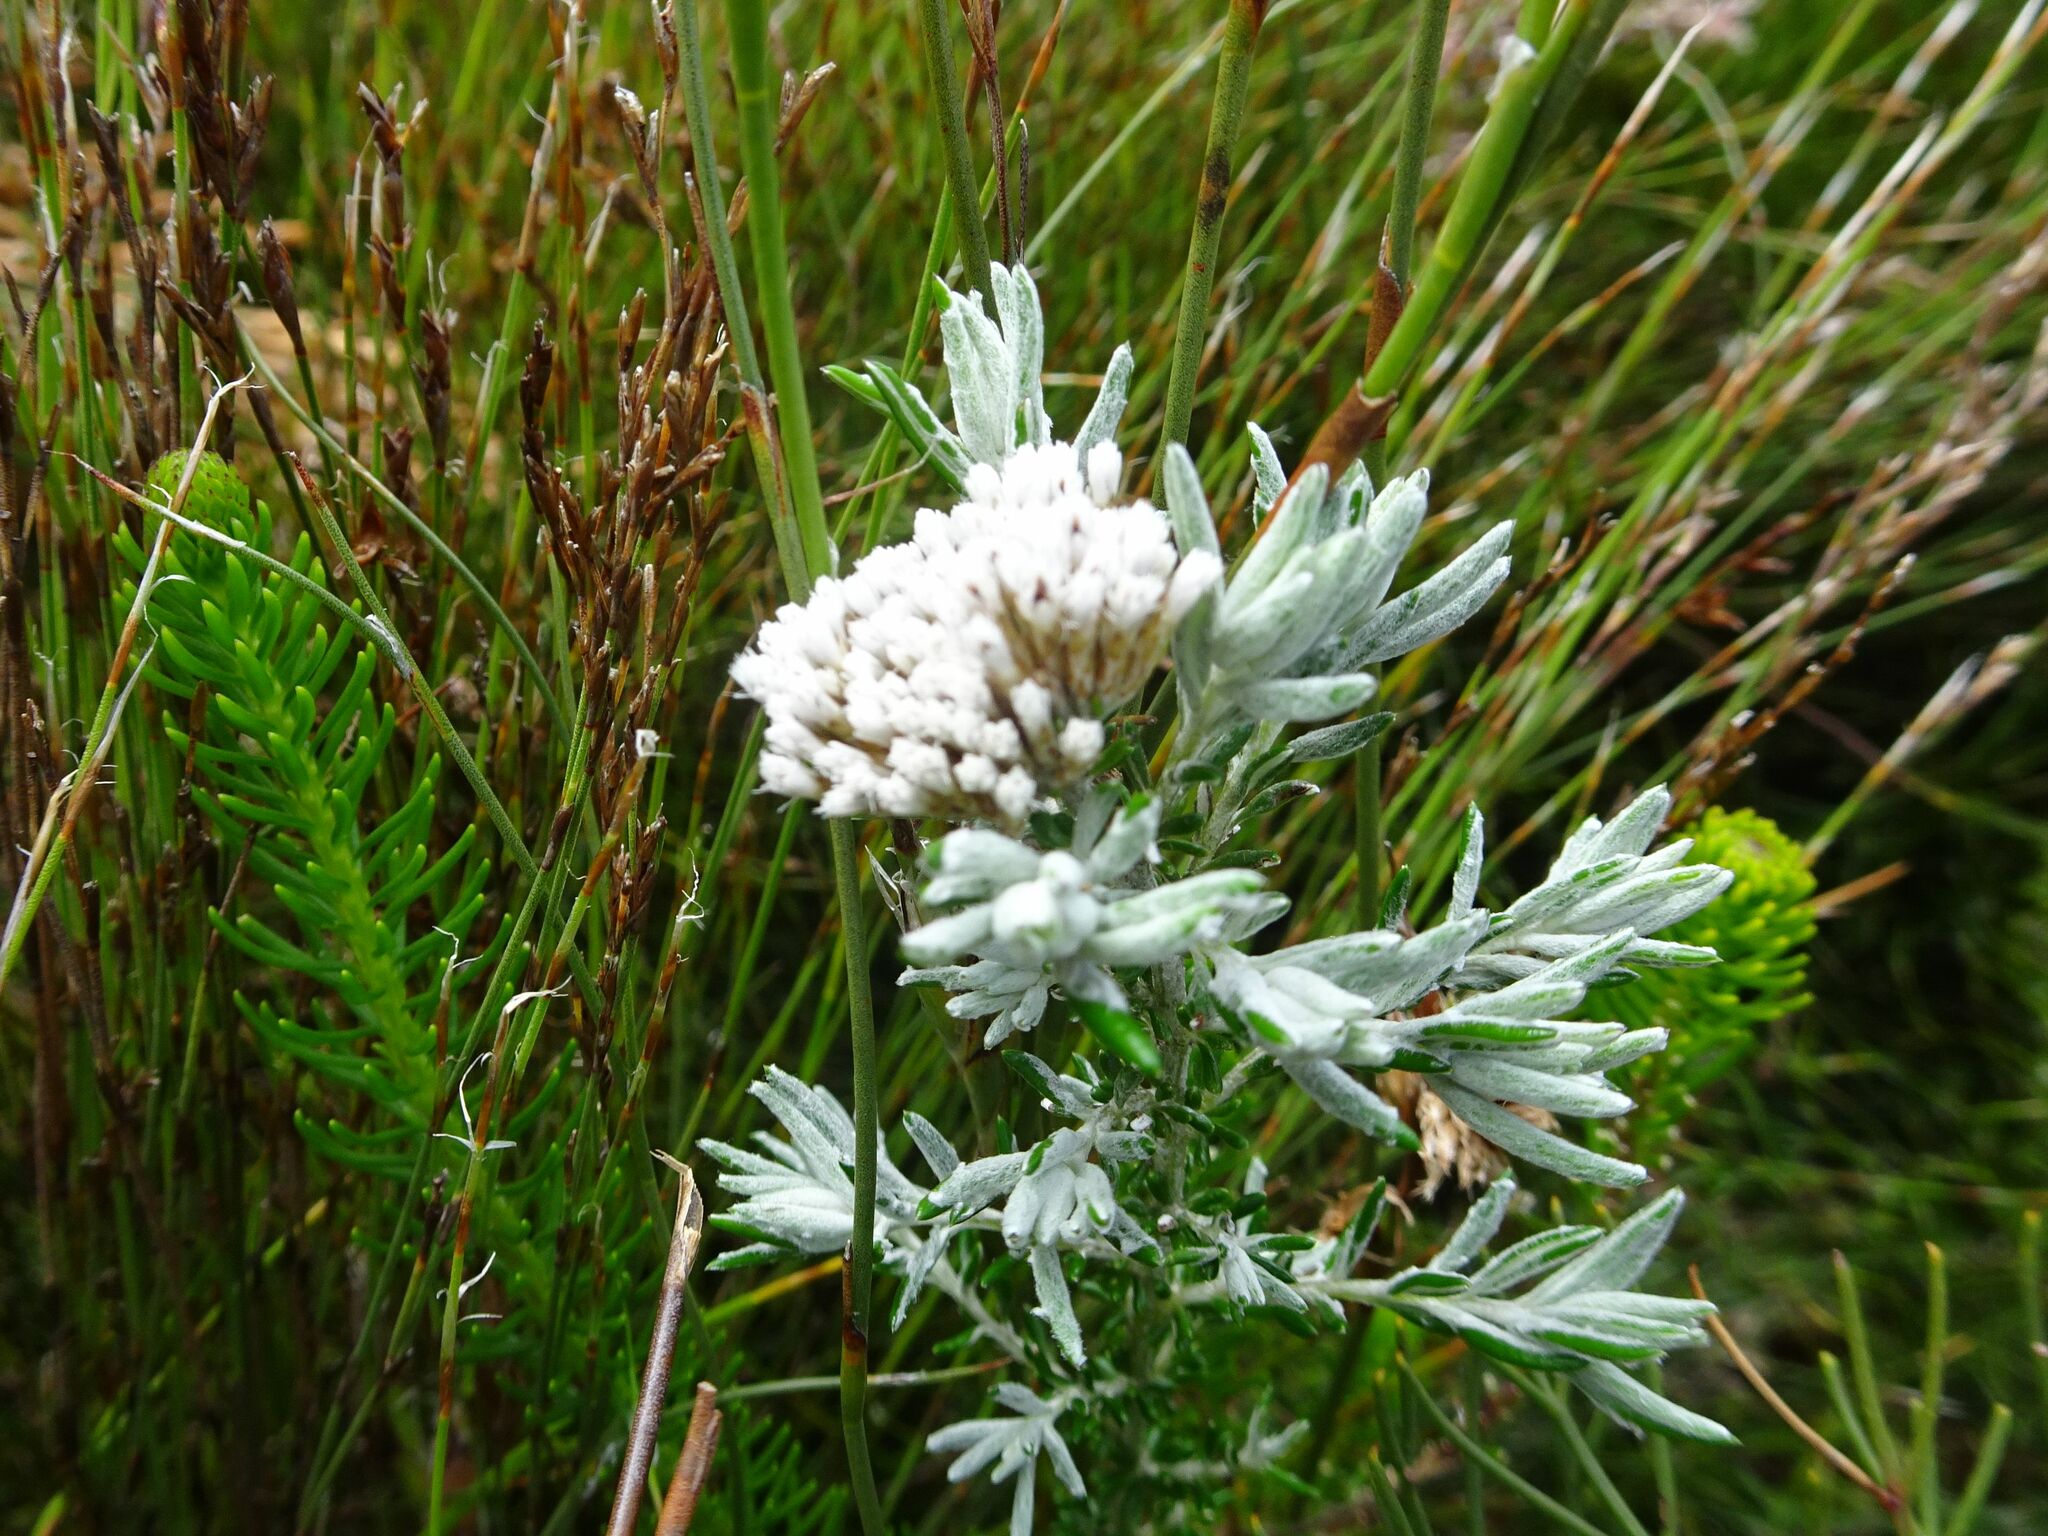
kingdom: Plantae
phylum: Tracheophyta
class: Magnoliopsida
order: Asterales
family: Asteraceae
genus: Metalasia
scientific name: Metalasia densa
